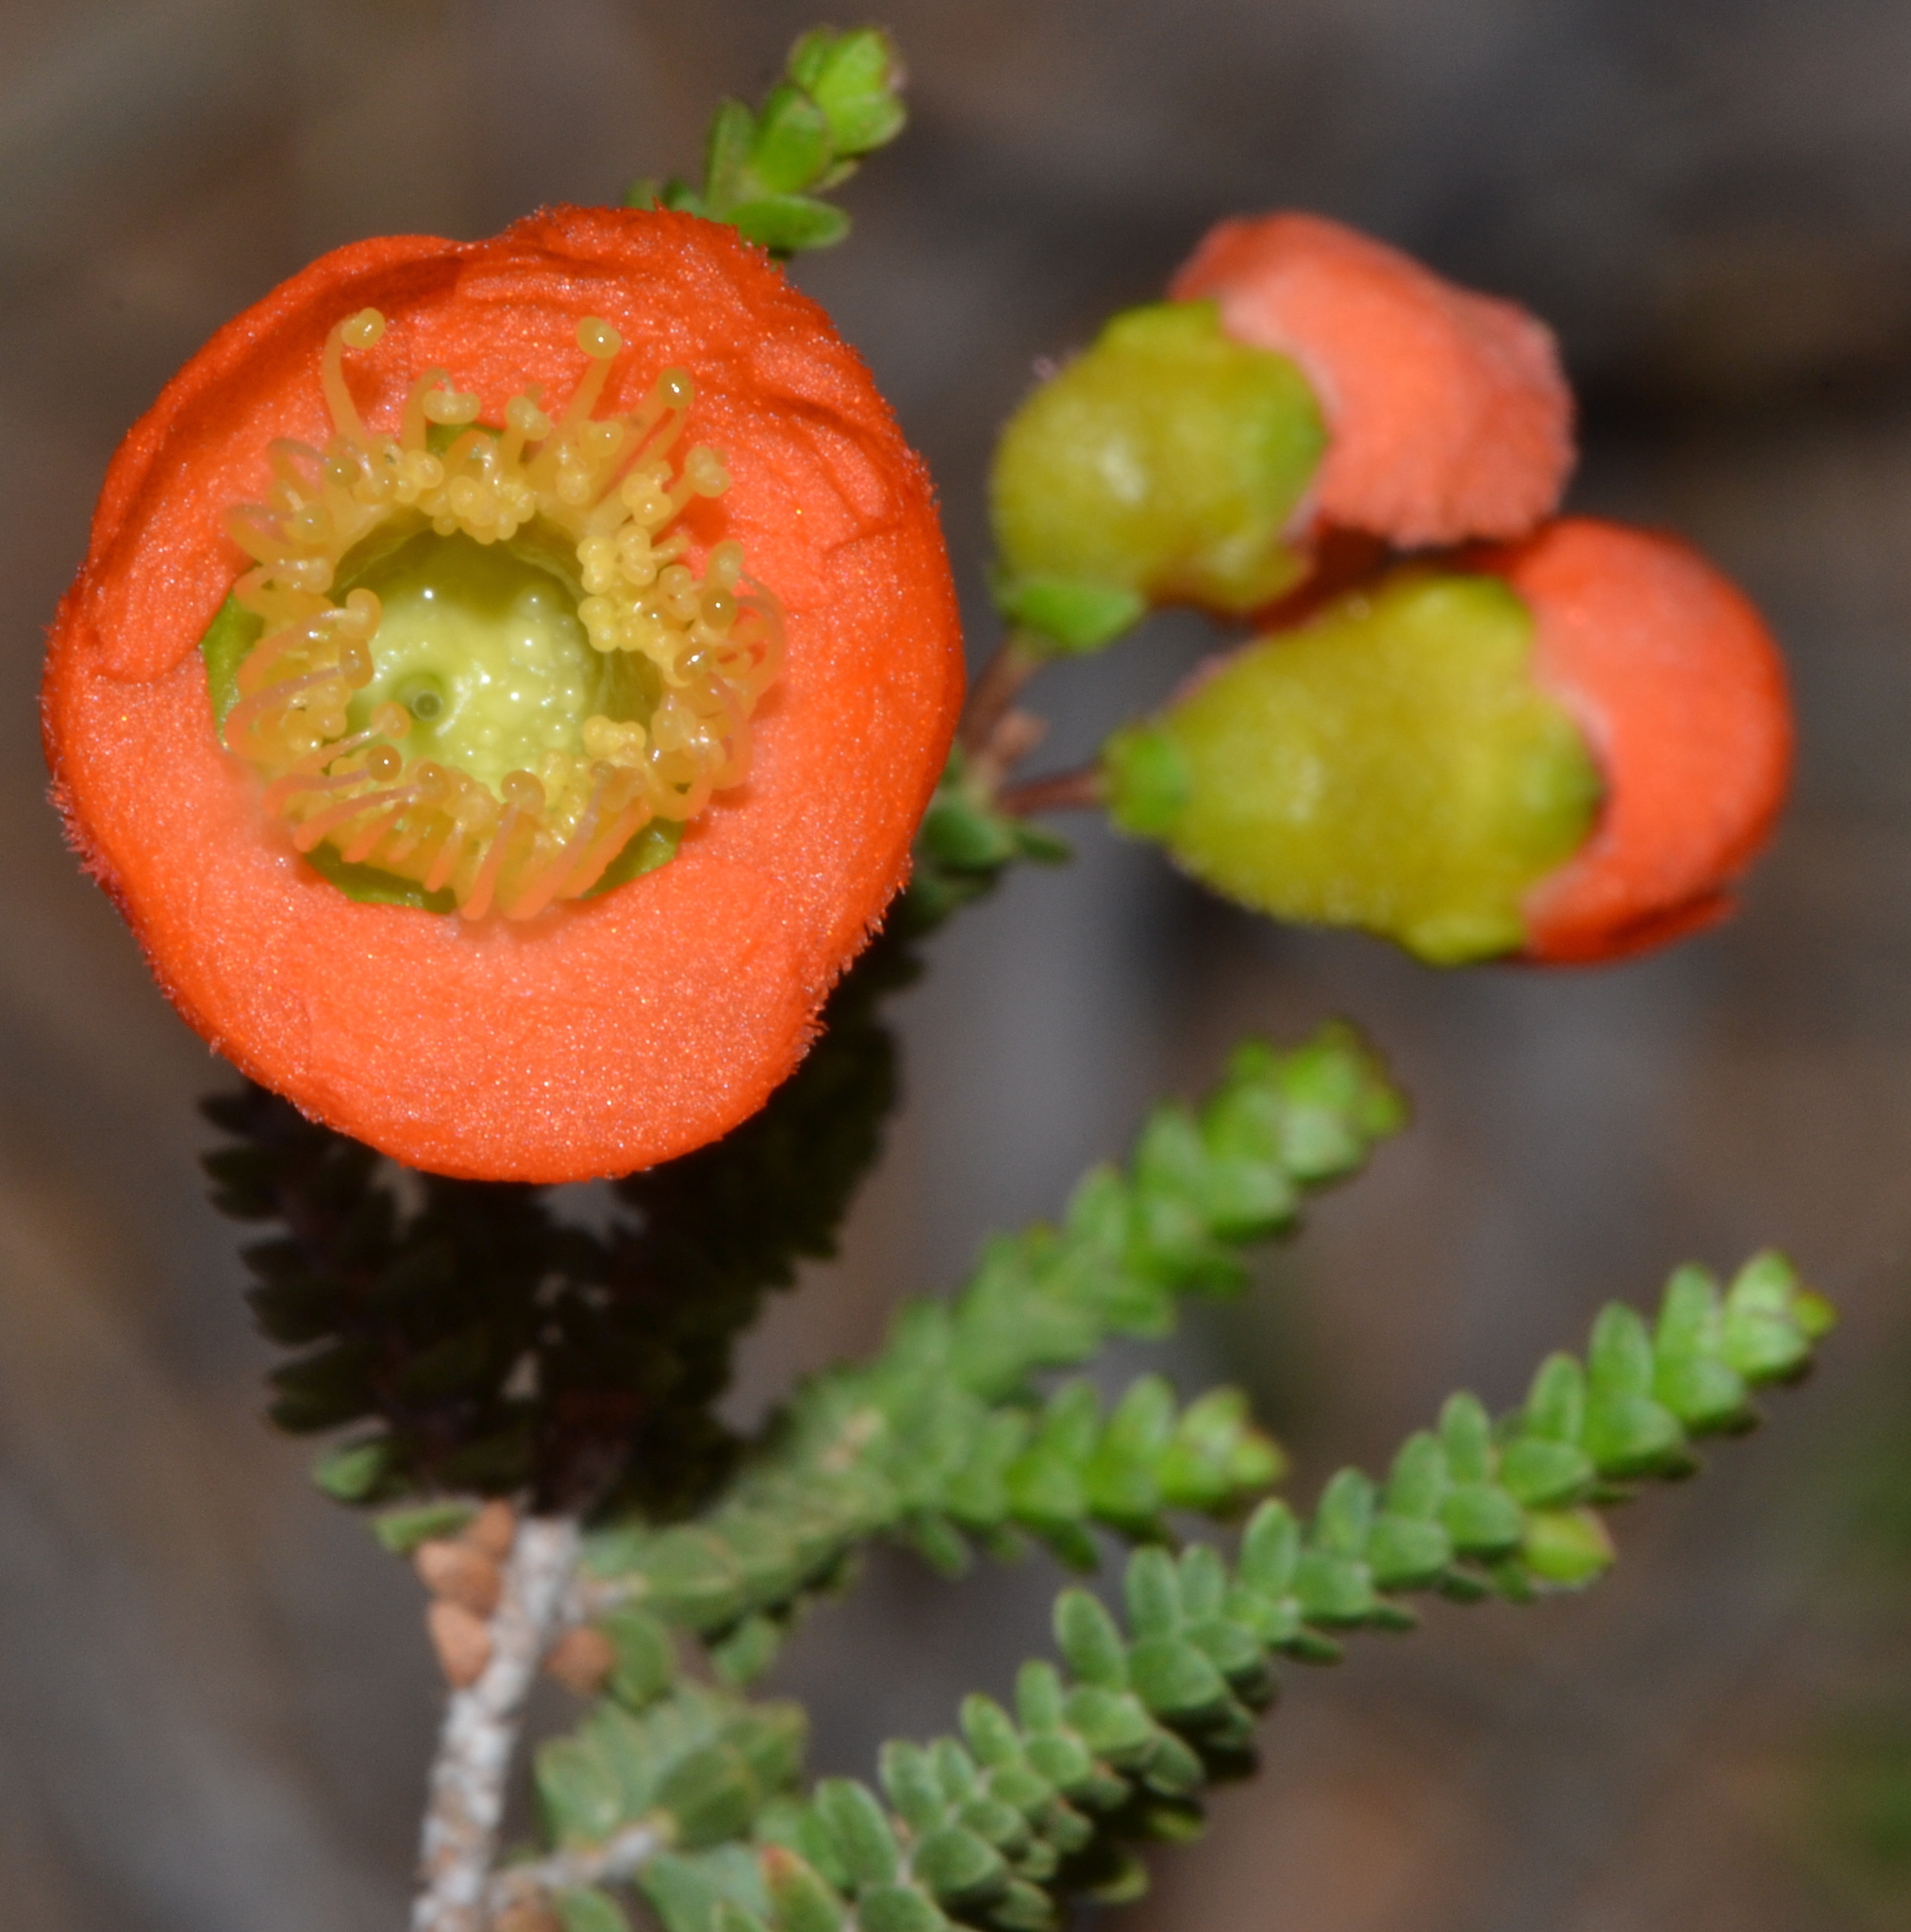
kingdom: Plantae
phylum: Tracheophyta
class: Magnoliopsida
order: Myrtales
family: Myrtaceae
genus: Cheyniana
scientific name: Cheyniana microphylla
